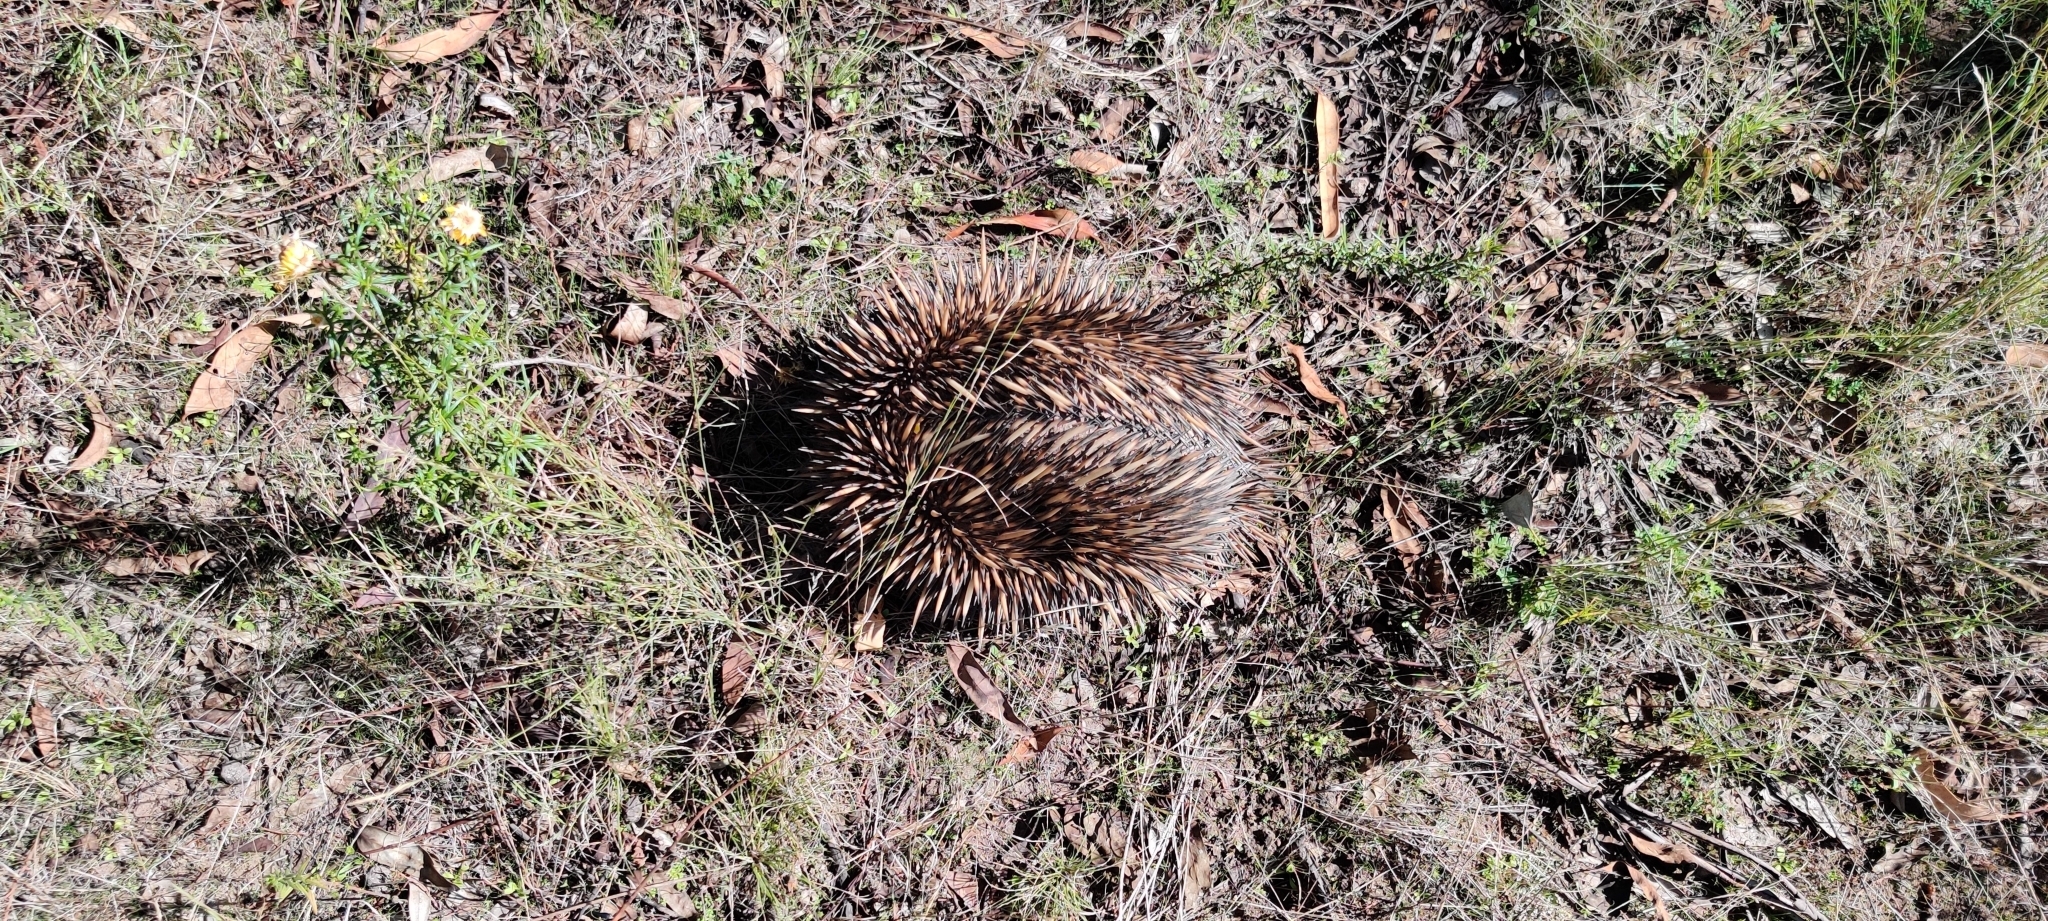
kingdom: Animalia
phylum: Chordata
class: Mammalia
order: Monotremata
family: Tachyglossidae
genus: Tachyglossus
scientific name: Tachyglossus aculeatus
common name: Short-beaked echidna
